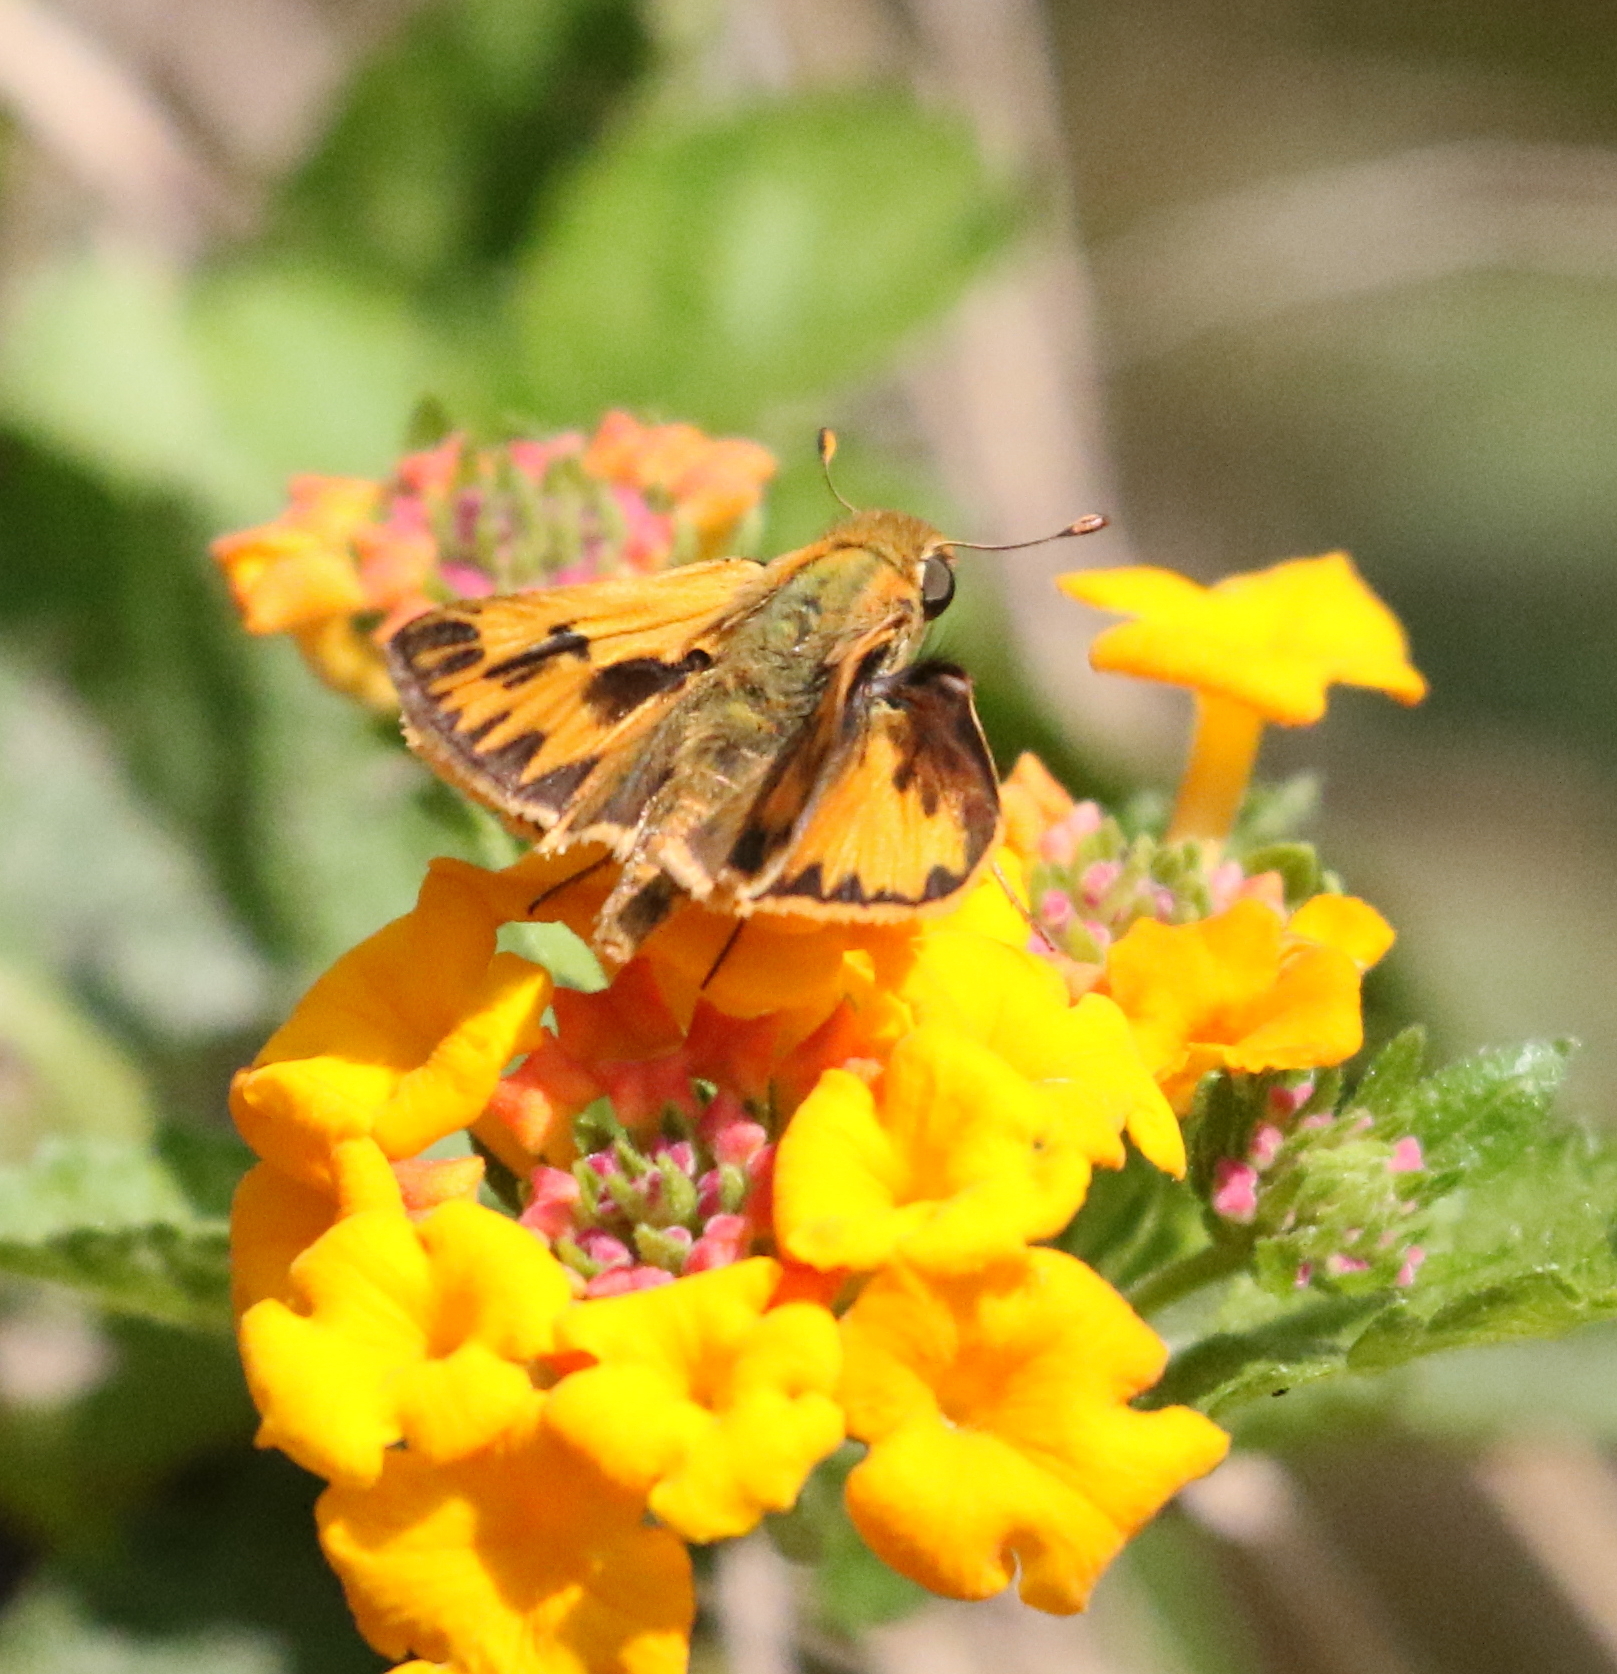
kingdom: Animalia
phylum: Arthropoda
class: Insecta
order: Lepidoptera
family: Hesperiidae
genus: Hylephila
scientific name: Hylephila phyleus
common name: Fiery skipper
